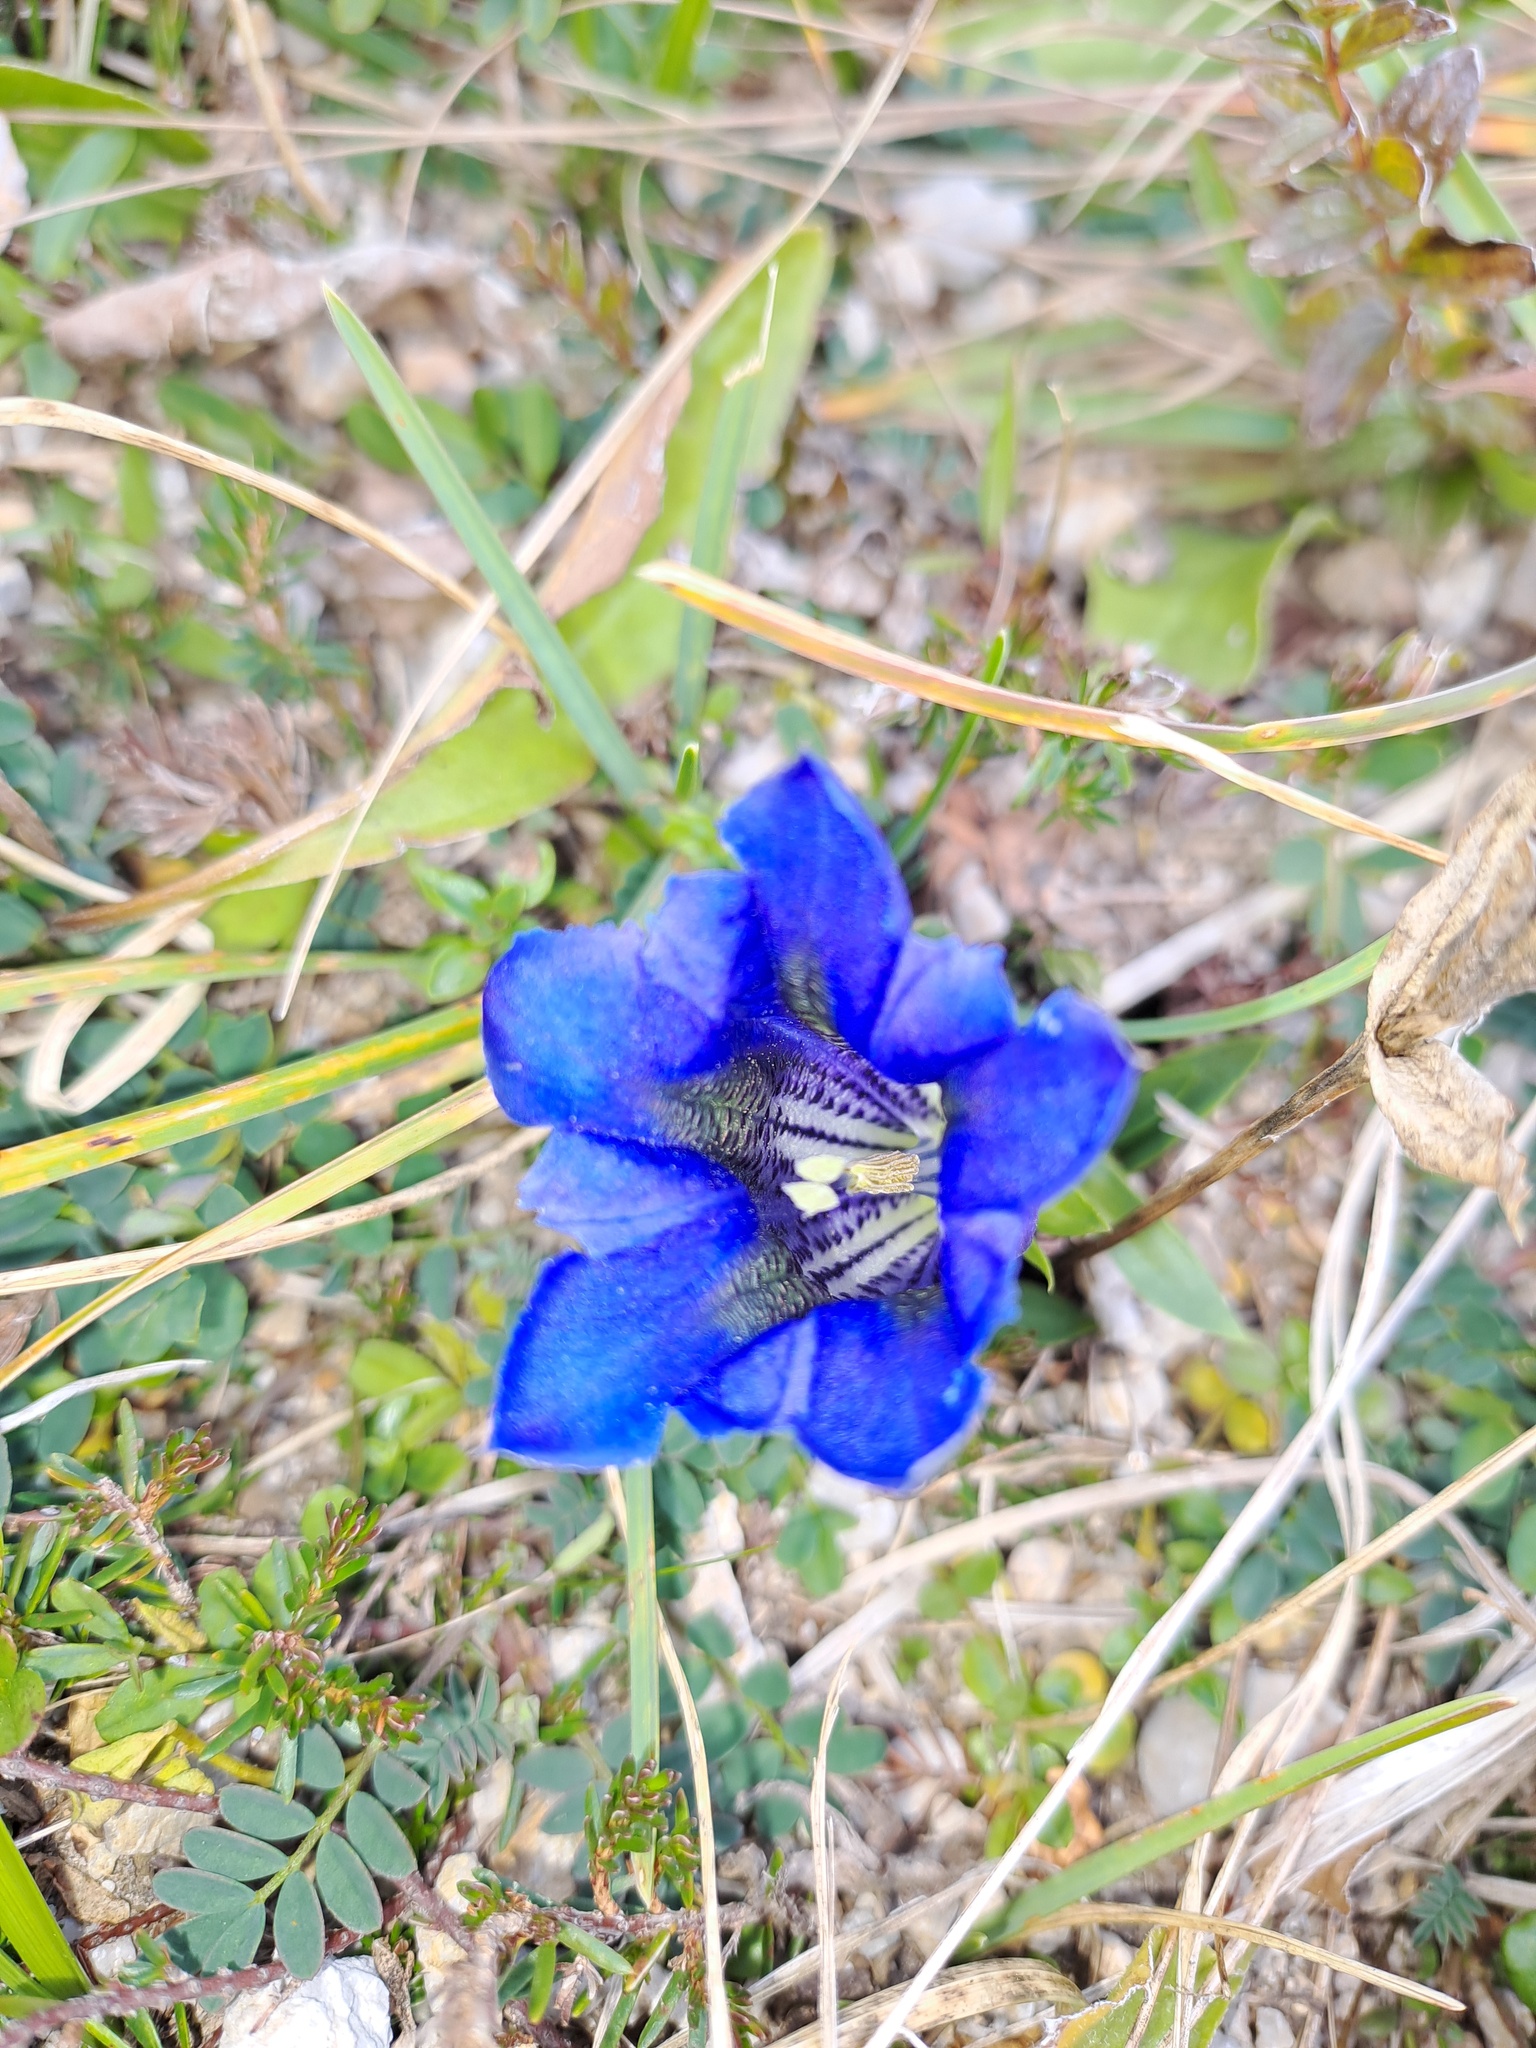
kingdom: Plantae
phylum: Tracheophyta
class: Magnoliopsida
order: Gentianales
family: Gentianaceae
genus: Gentiana
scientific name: Gentiana clusii
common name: Trumpet gentian
